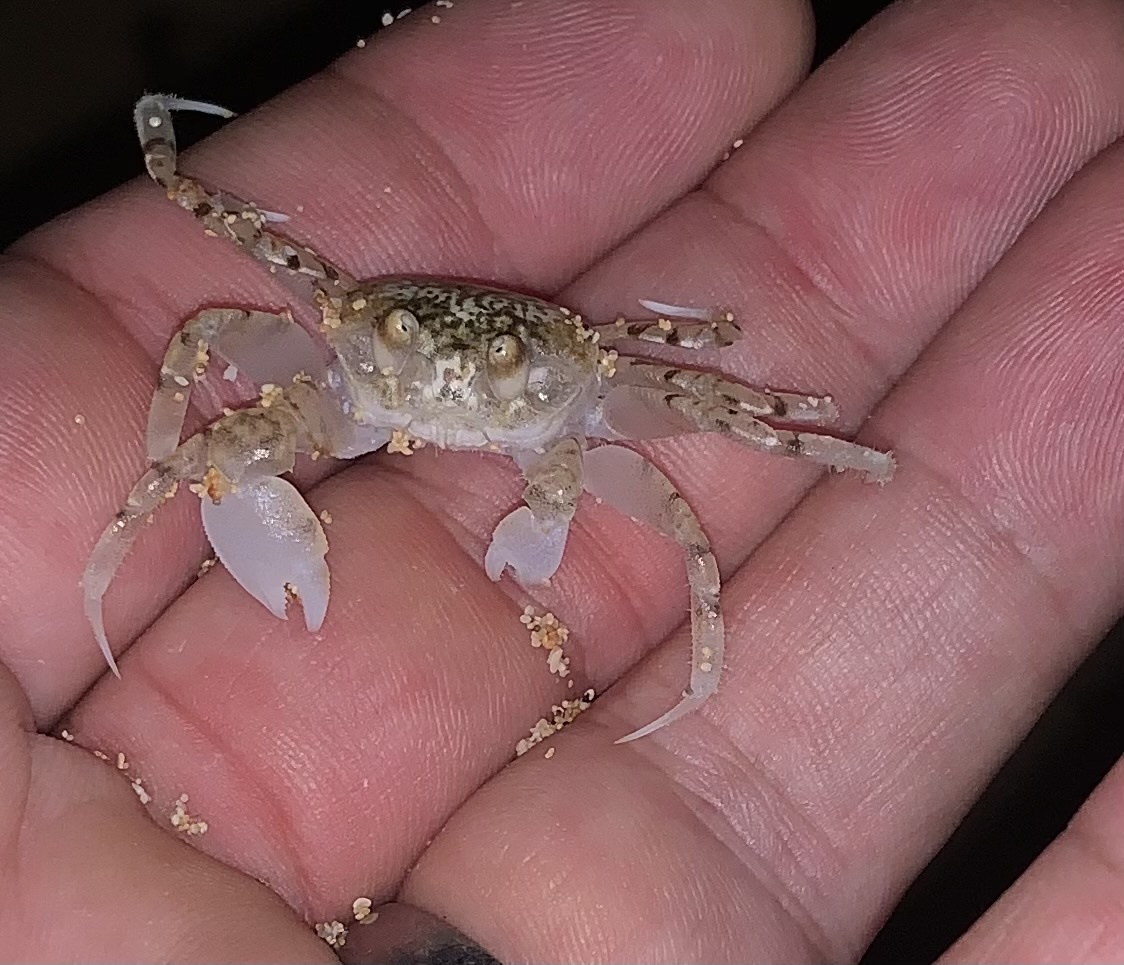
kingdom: Animalia
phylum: Arthropoda
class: Malacostraca
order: Decapoda
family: Ocypodidae
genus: Ocypode
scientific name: Ocypode pallidula
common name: Pallid ghost crab
